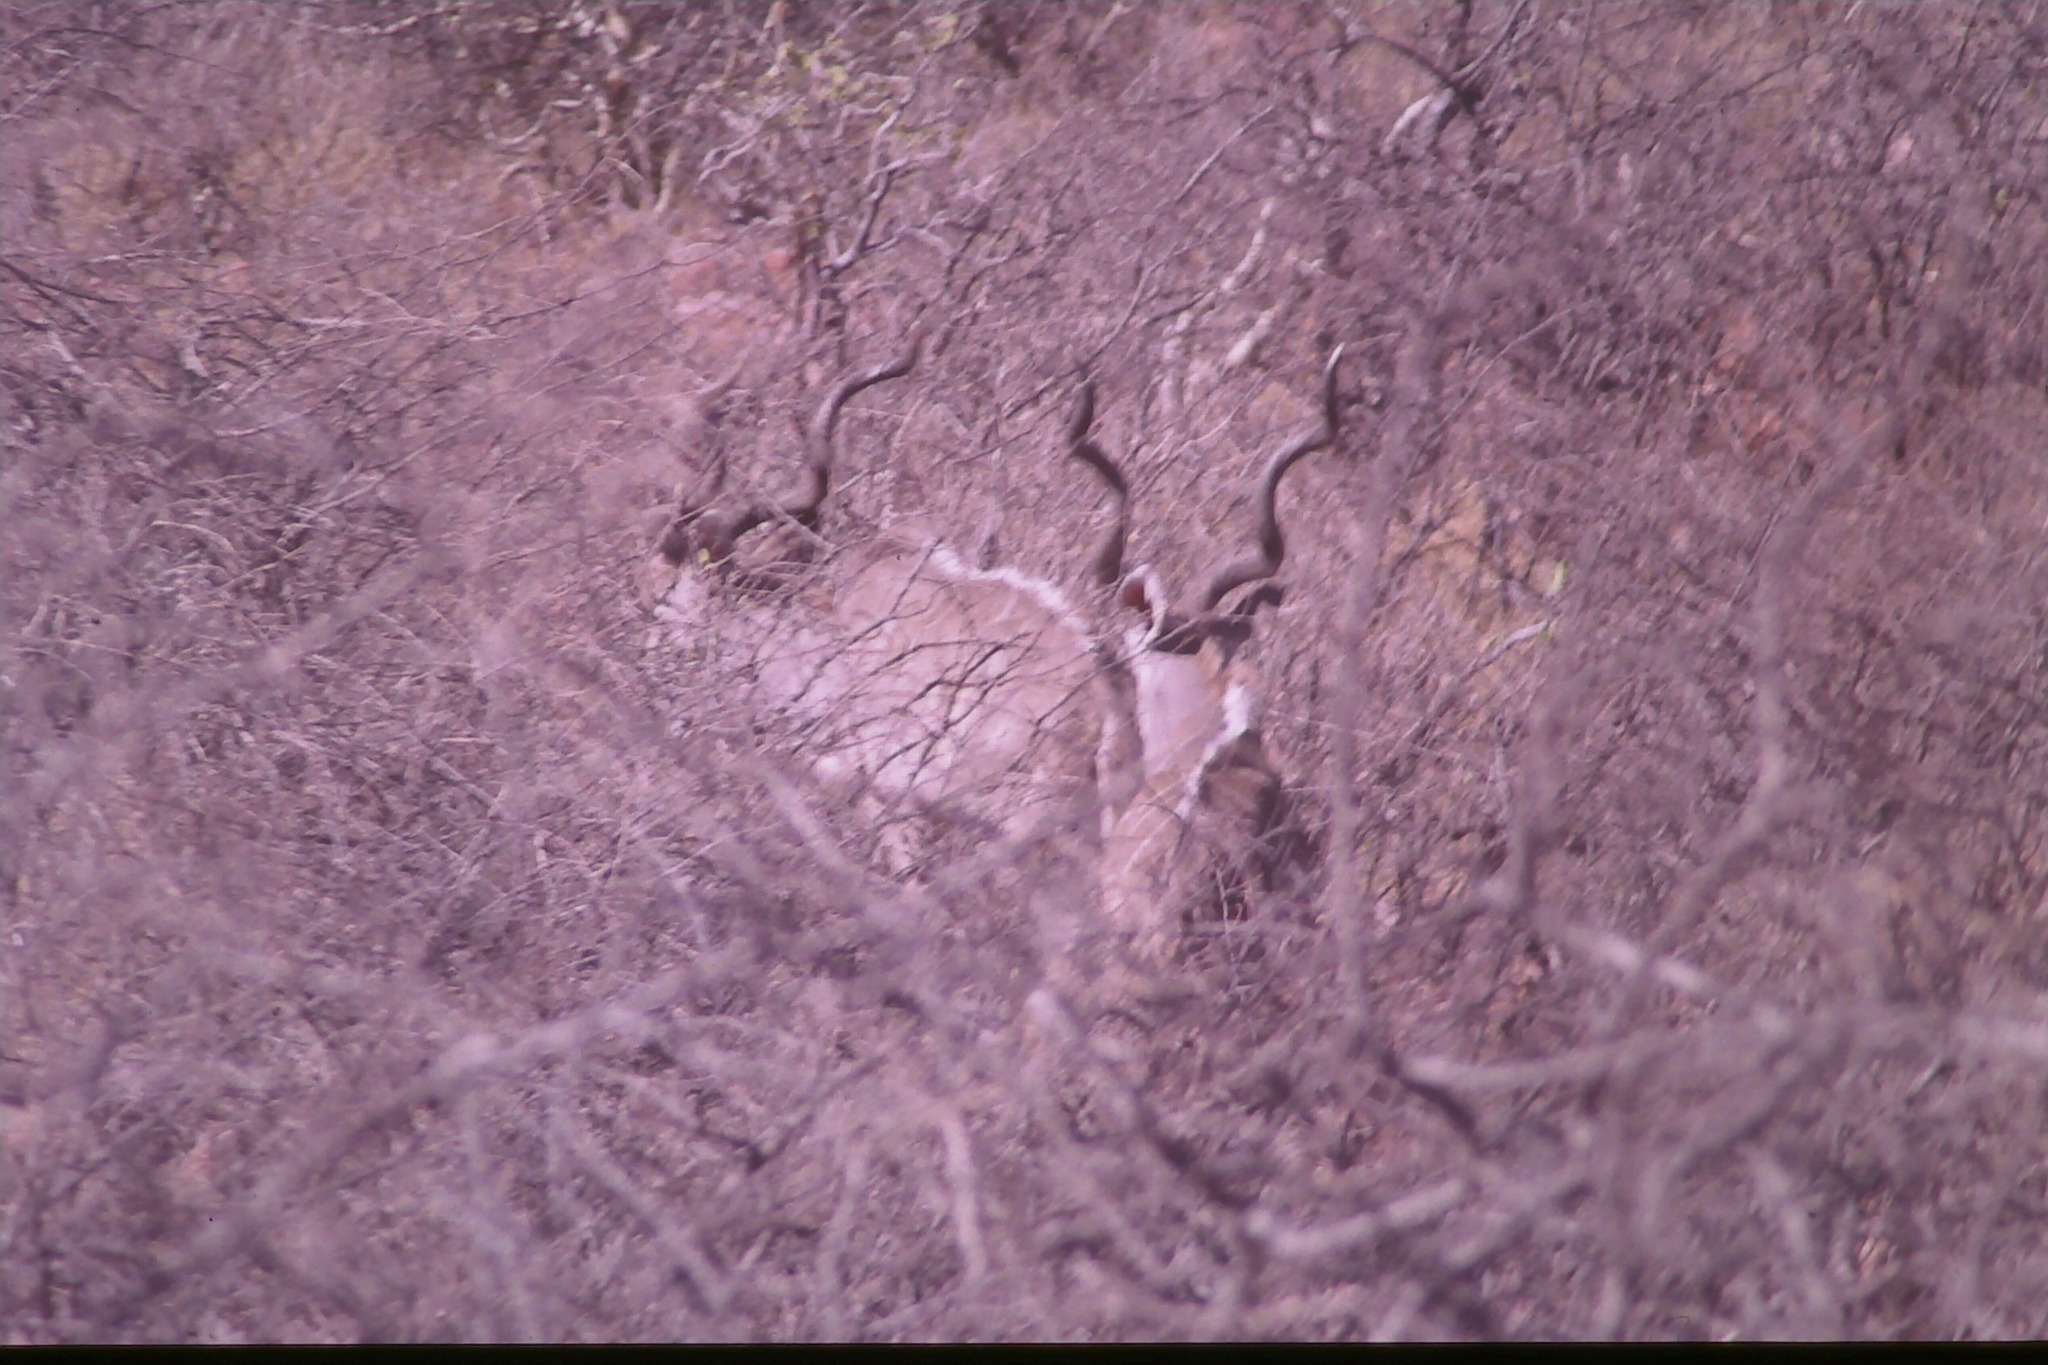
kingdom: Animalia
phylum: Chordata
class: Mammalia
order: Artiodactyla
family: Bovidae
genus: Tragelaphus
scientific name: Tragelaphus strepsiceros
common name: Greater kudu
